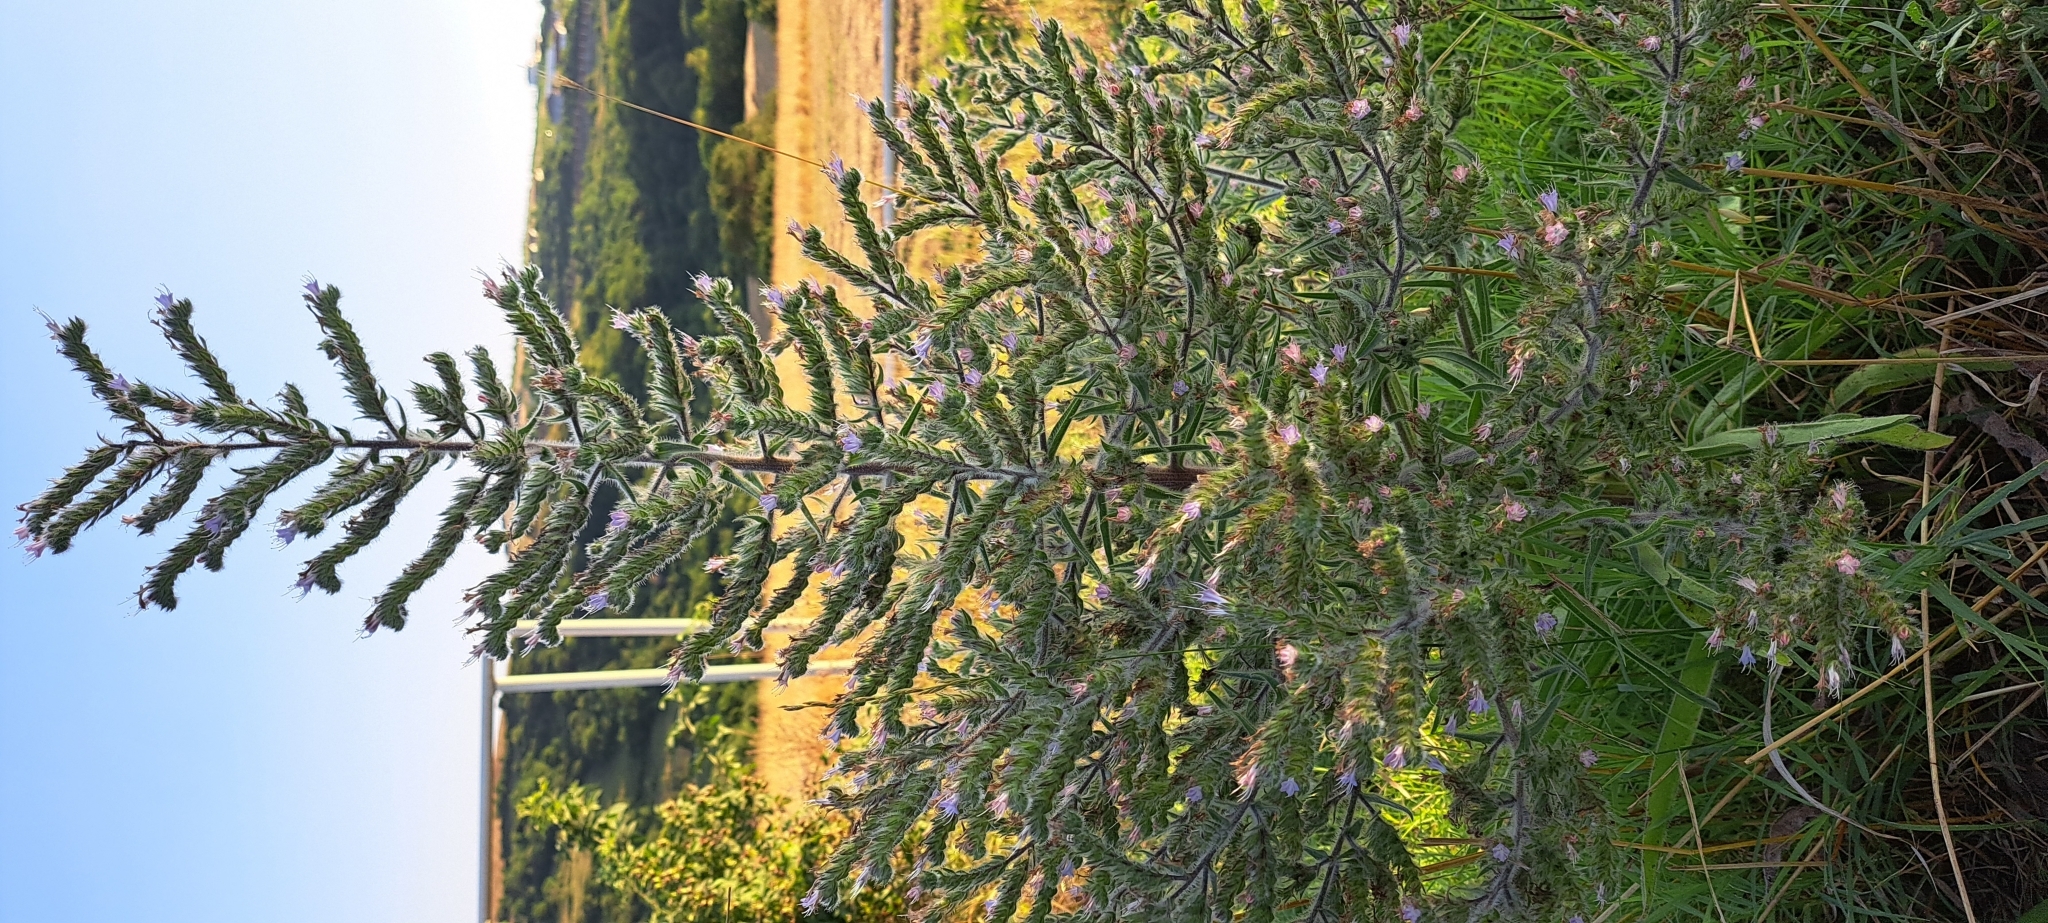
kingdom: Plantae
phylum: Tracheophyta
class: Magnoliopsida
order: Boraginales
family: Boraginaceae
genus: Echium
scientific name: Echium italicum
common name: Italian viper's bugloss
